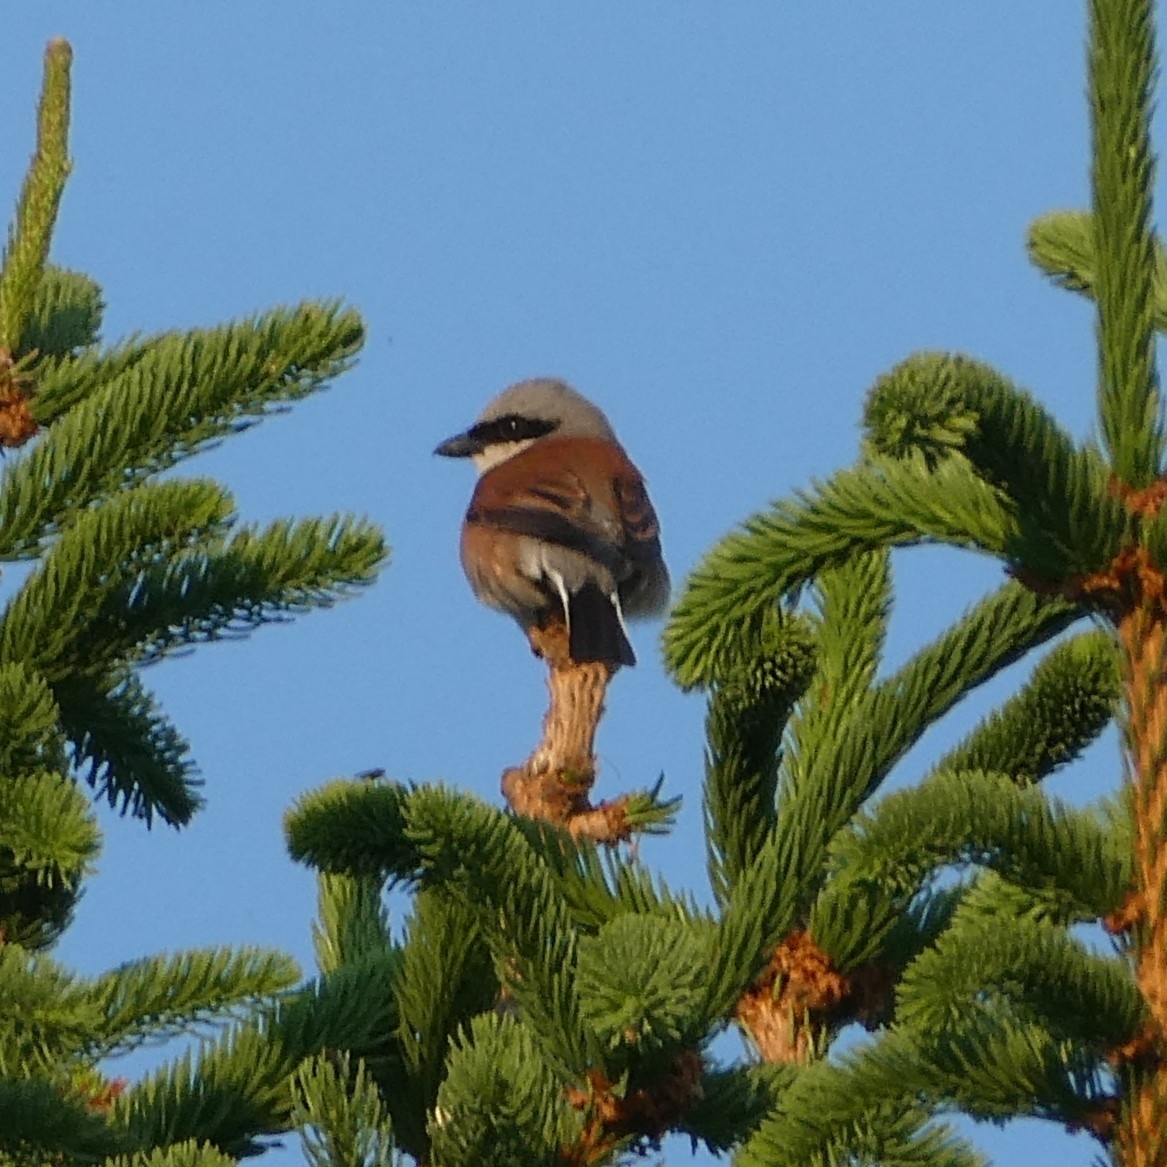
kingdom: Animalia
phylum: Chordata
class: Aves
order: Passeriformes
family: Laniidae
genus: Lanius
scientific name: Lanius collurio
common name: Red-backed shrike
